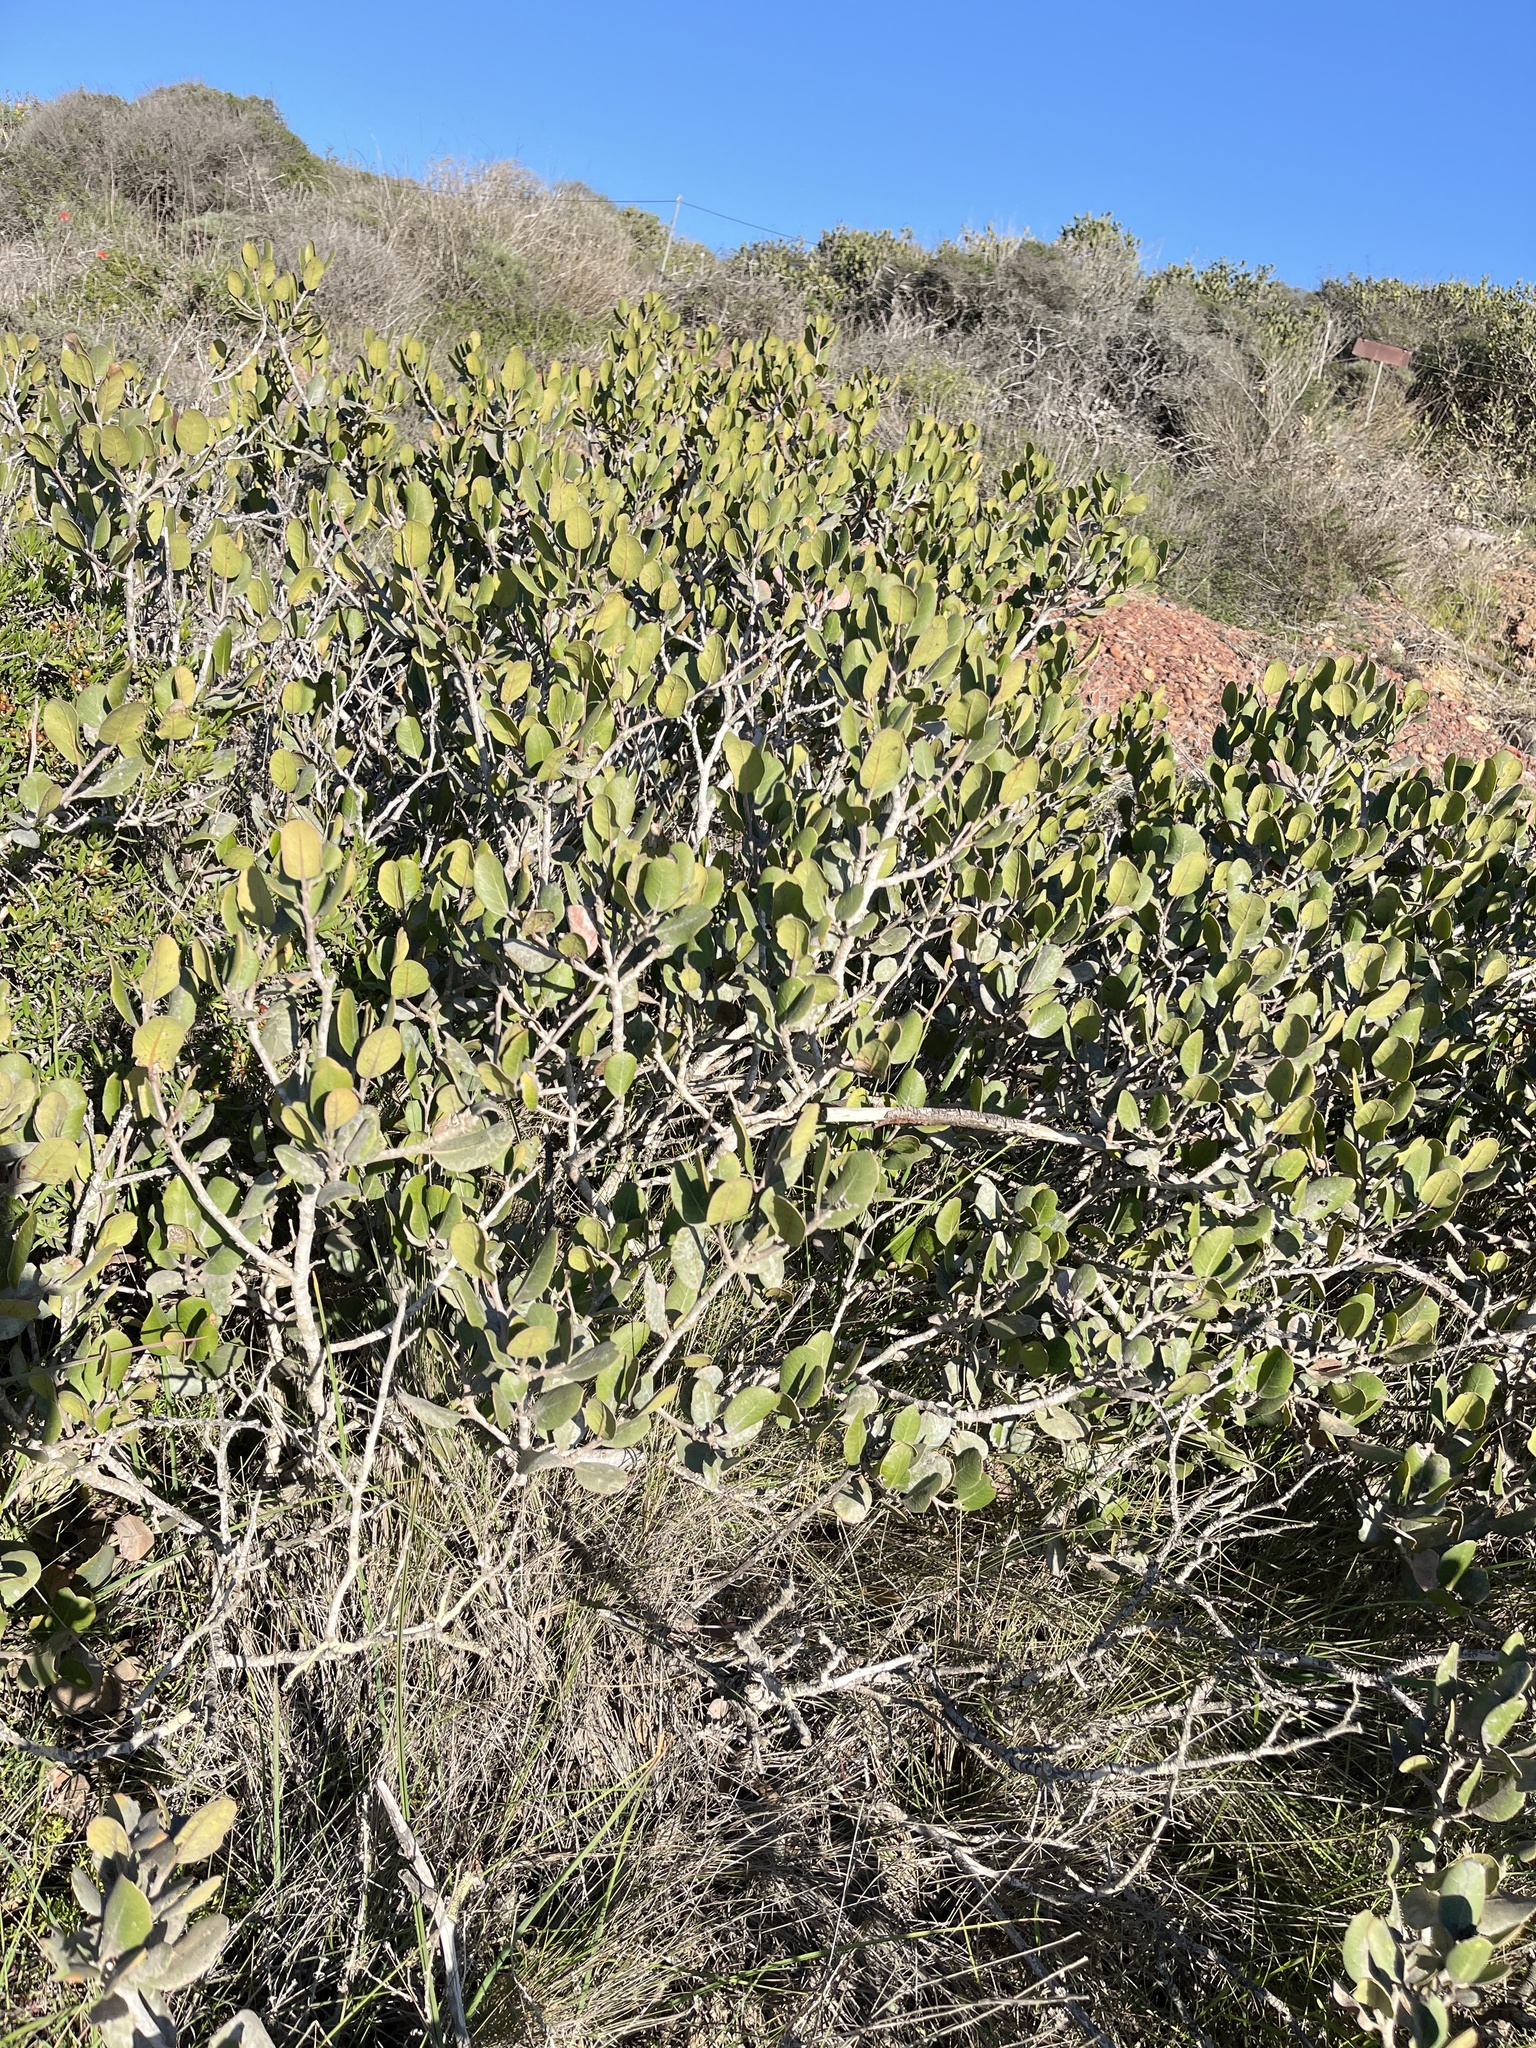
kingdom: Plantae
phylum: Tracheophyta
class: Magnoliopsida
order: Sapindales
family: Anacardiaceae
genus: Rhus
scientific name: Rhus integrifolia
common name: Lemonade sumac
